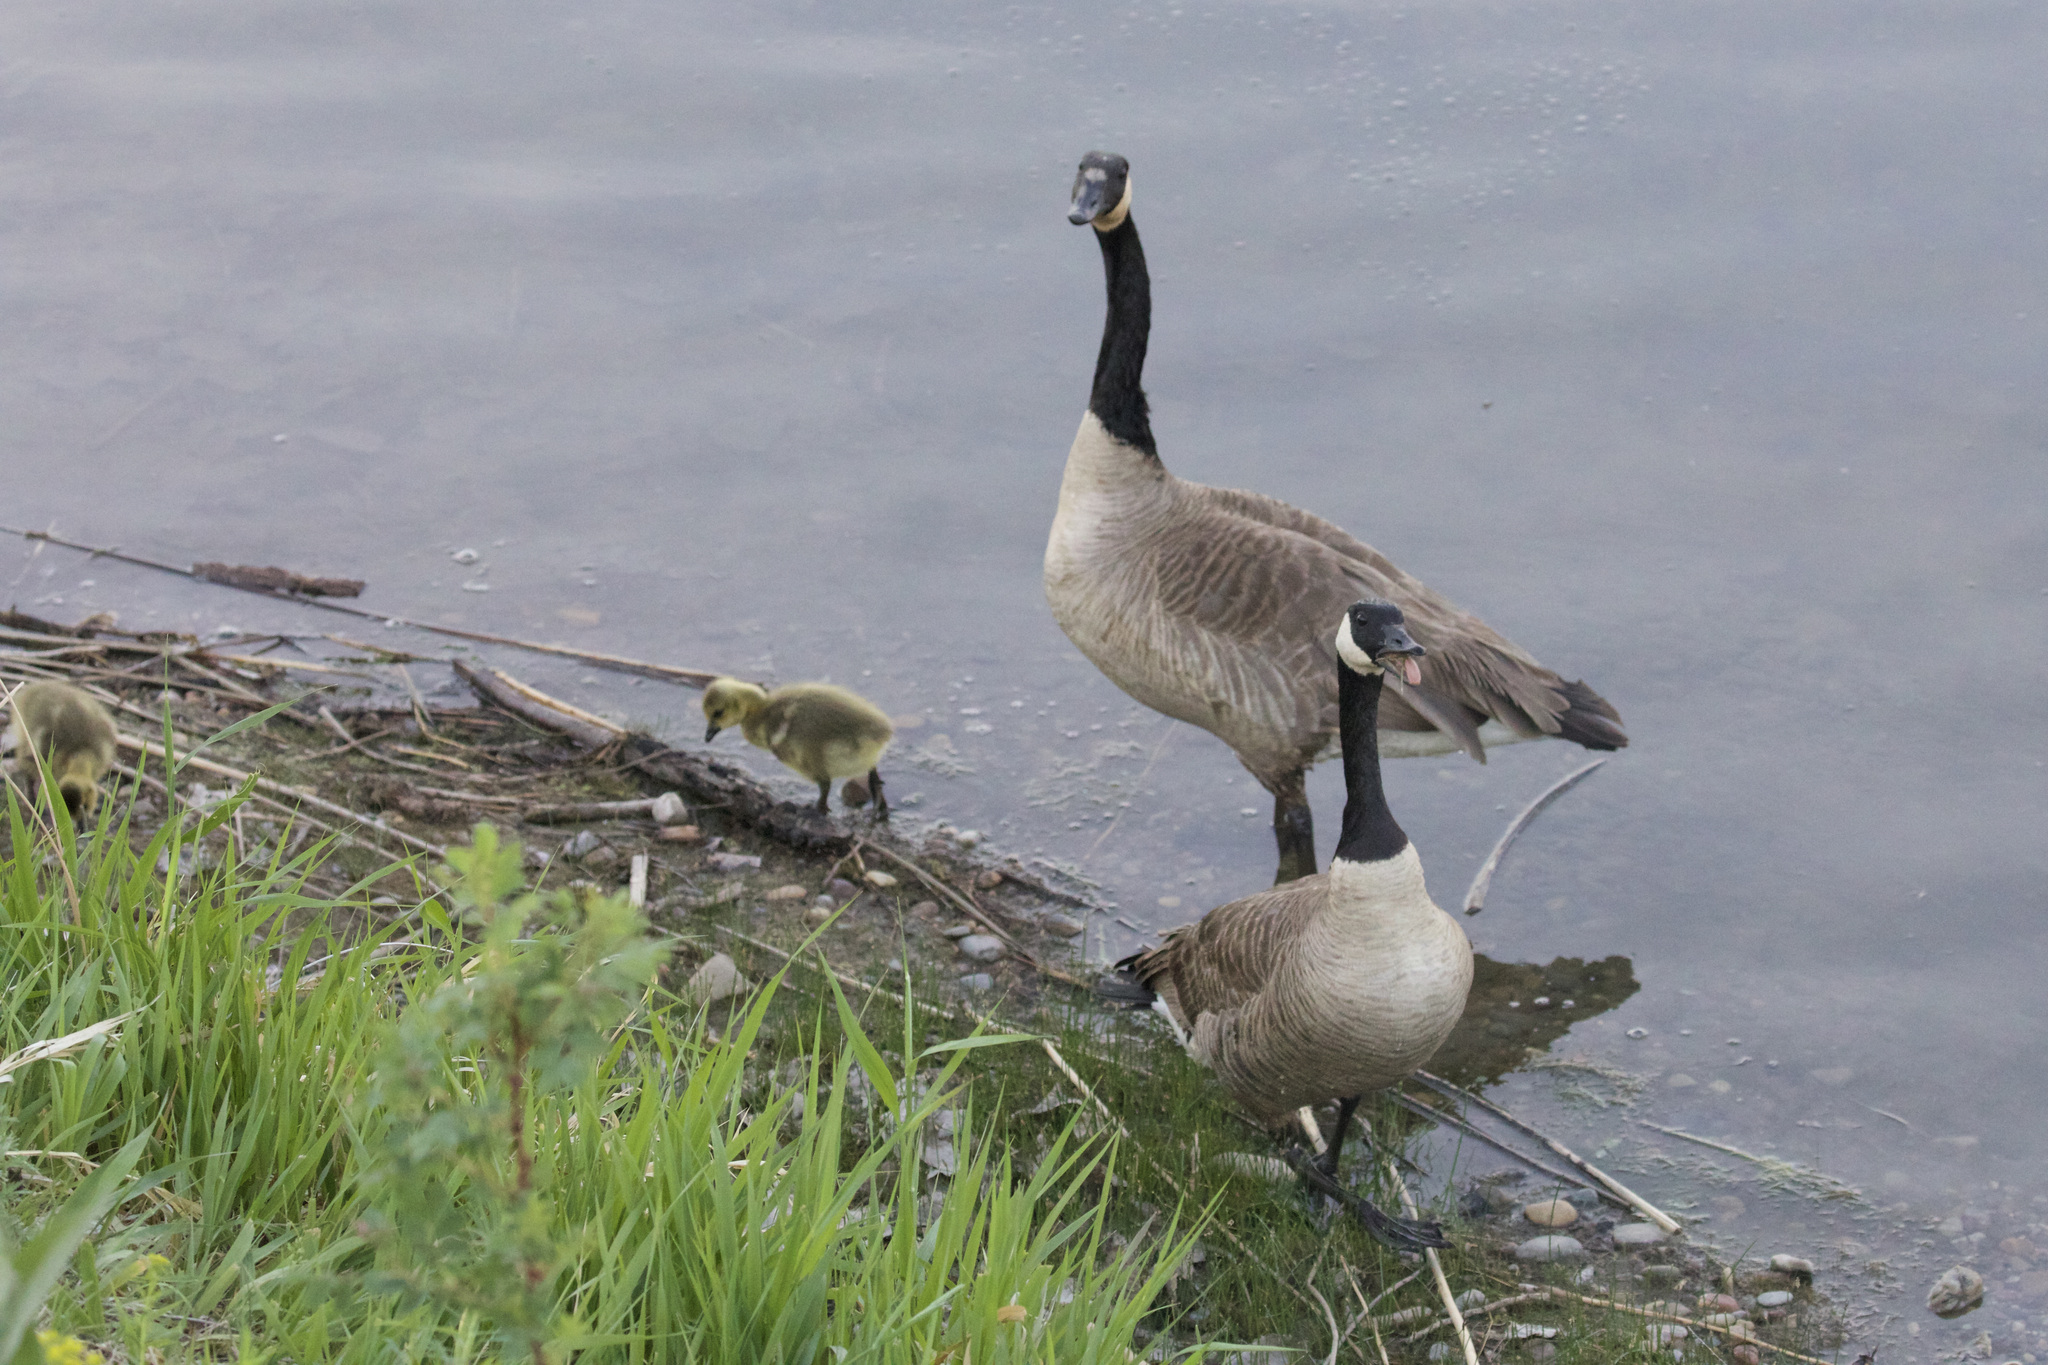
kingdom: Animalia
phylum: Chordata
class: Aves
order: Anseriformes
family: Anatidae
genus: Branta
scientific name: Branta canadensis
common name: Canada goose
